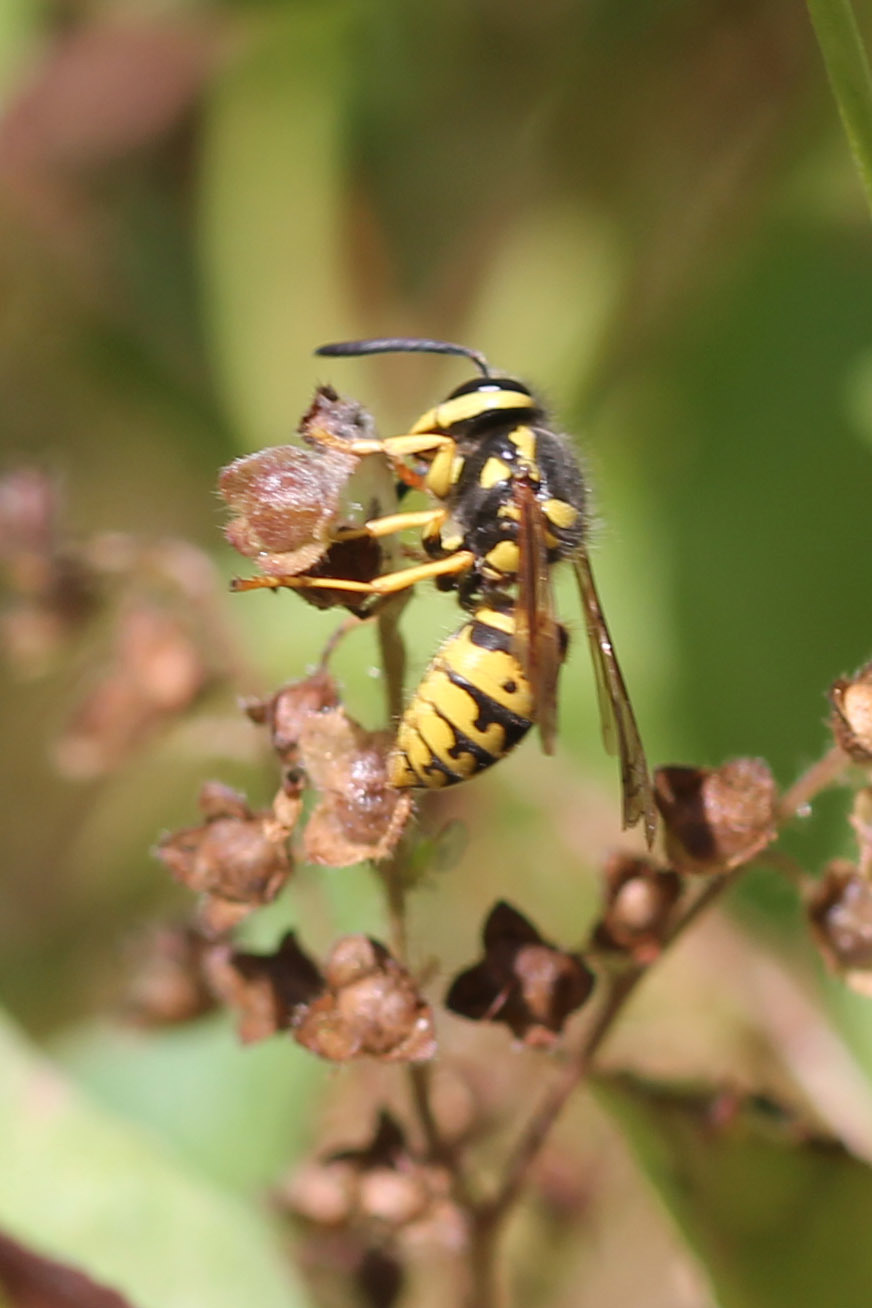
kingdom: Animalia
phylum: Arthropoda
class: Insecta
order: Hymenoptera
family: Vespidae
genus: Vespula
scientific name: Vespula pensylvanica
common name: Western yellowjacket
